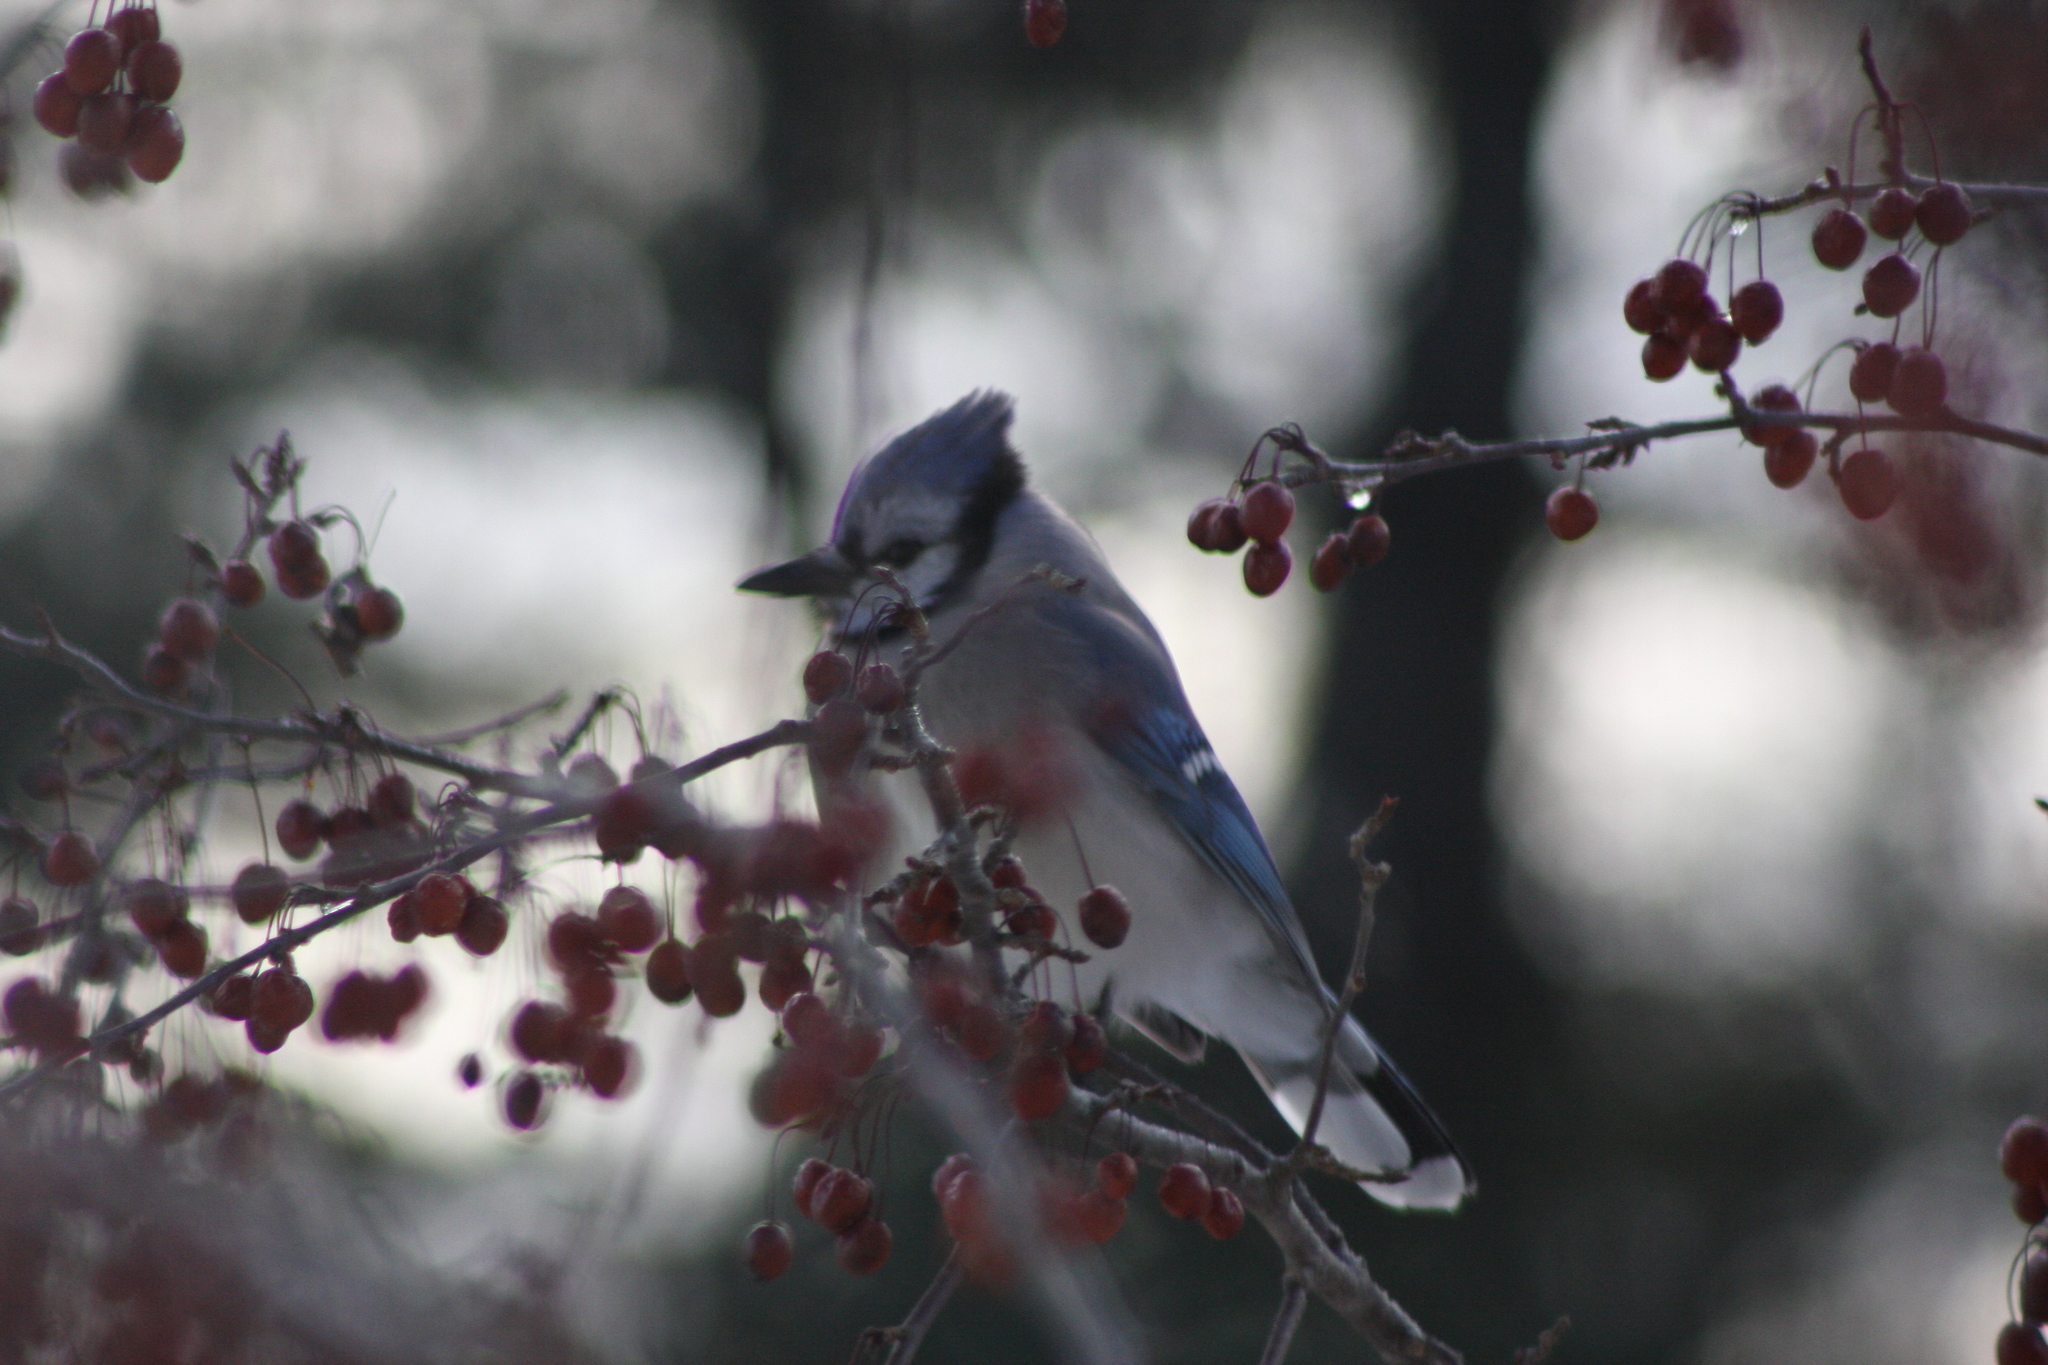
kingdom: Animalia
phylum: Chordata
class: Aves
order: Passeriformes
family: Corvidae
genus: Cyanocitta
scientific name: Cyanocitta cristata
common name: Blue jay
